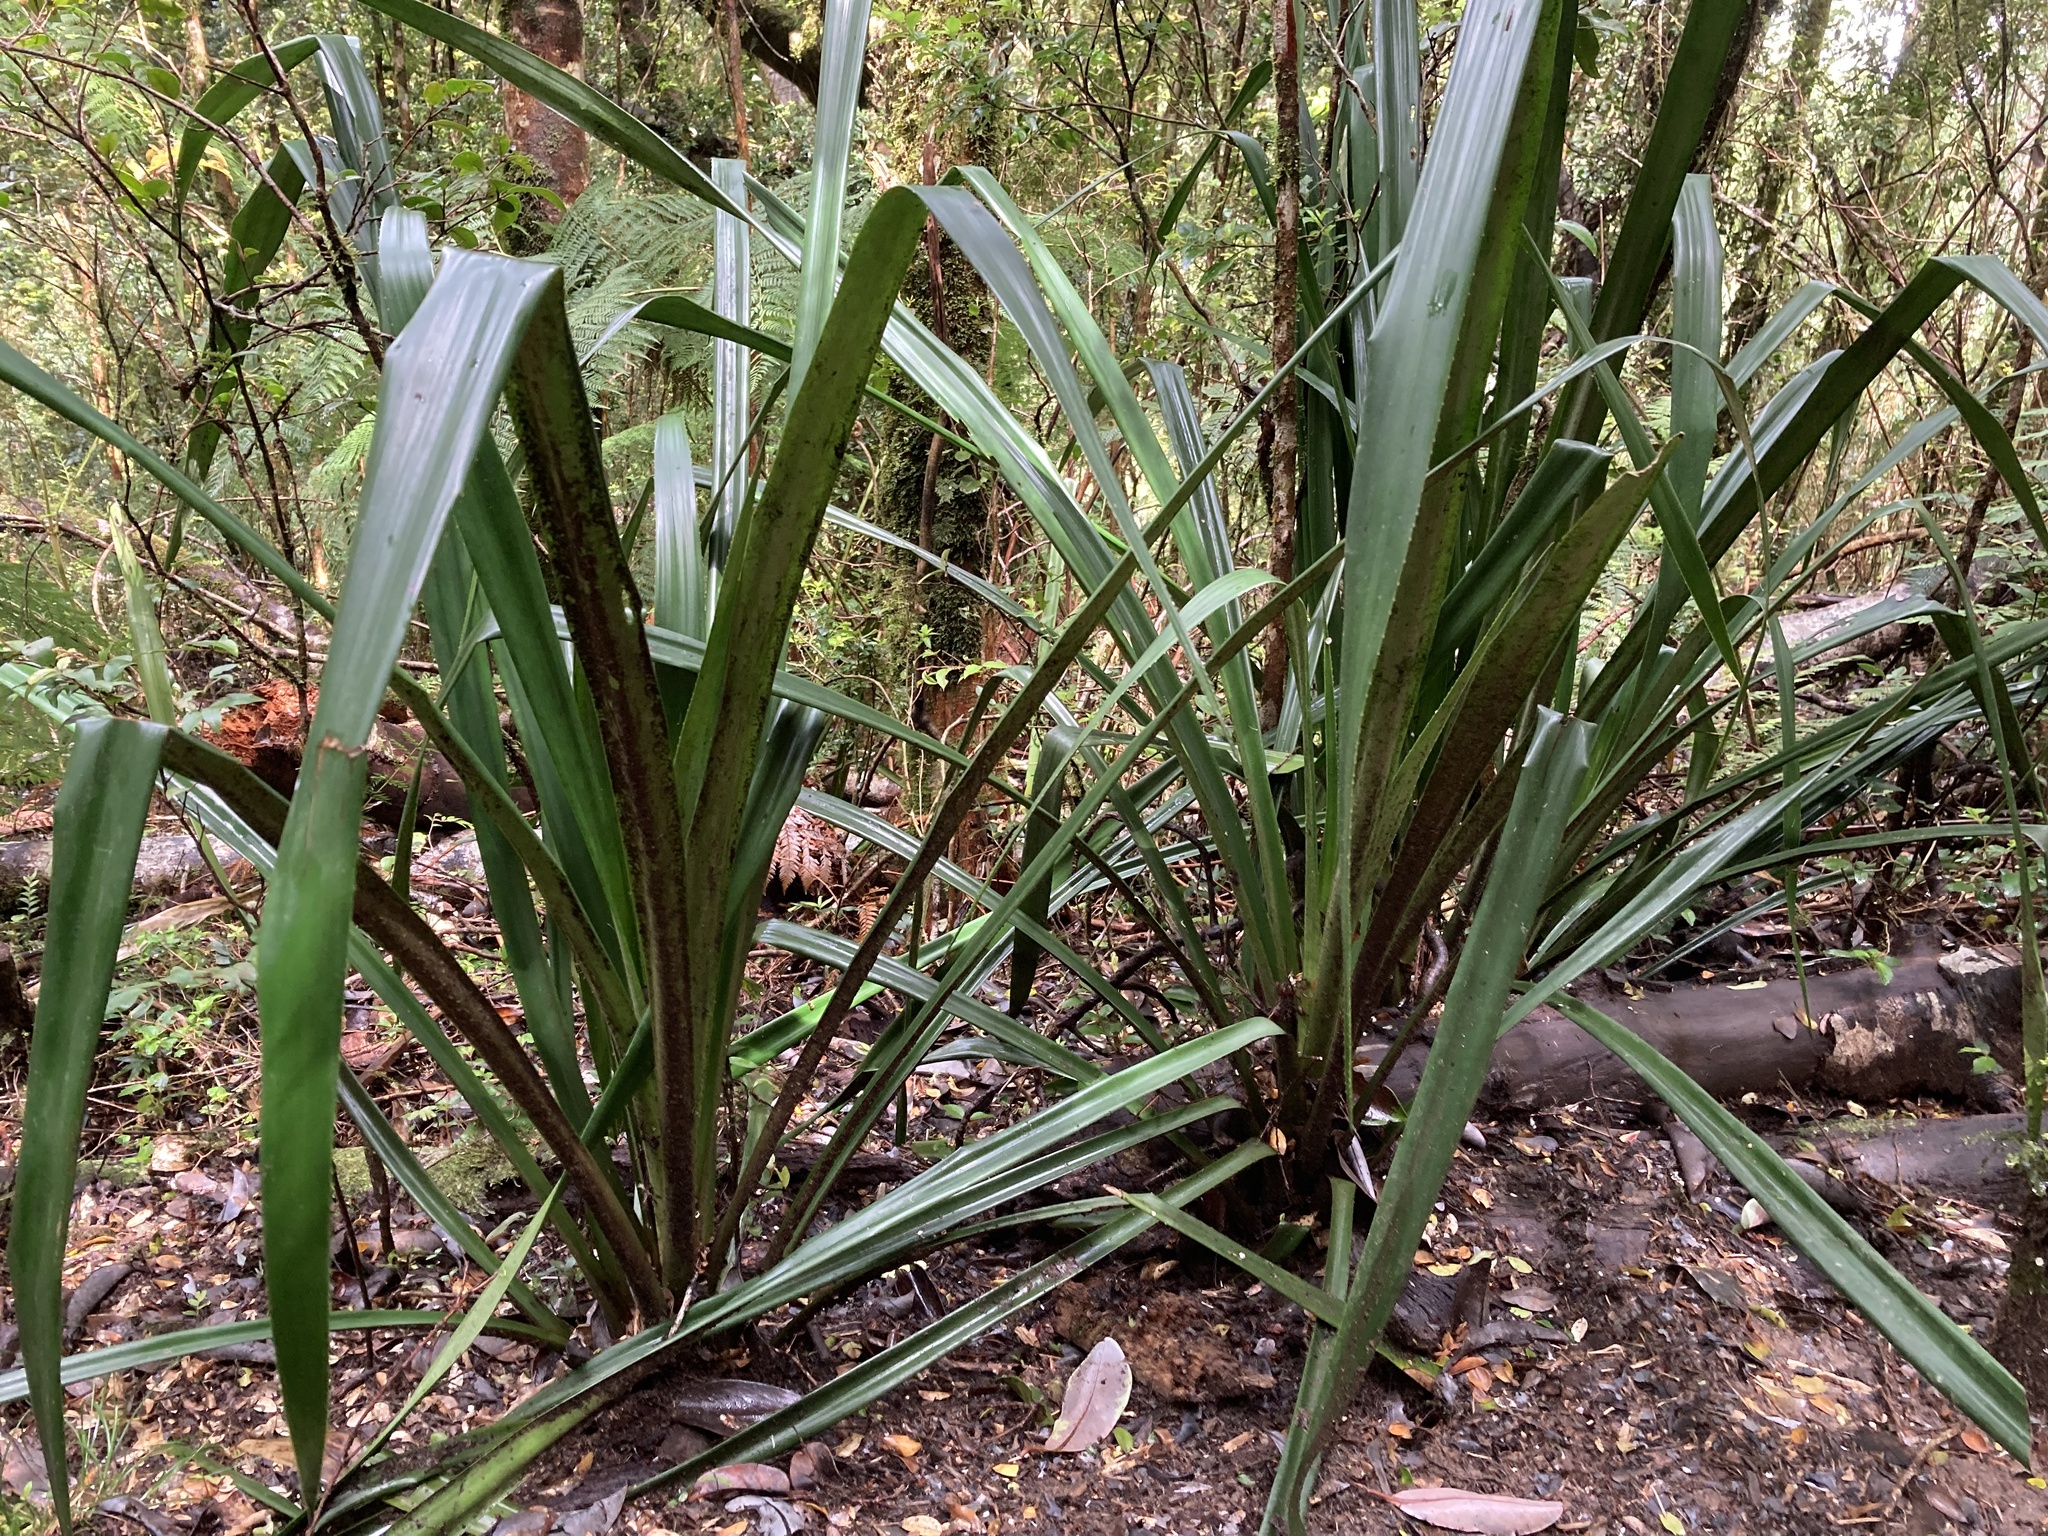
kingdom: Plantae
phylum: Tracheophyta
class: Liliopsida
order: Poales
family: Bromeliaceae
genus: Greigia
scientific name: Greigia sphacelata
